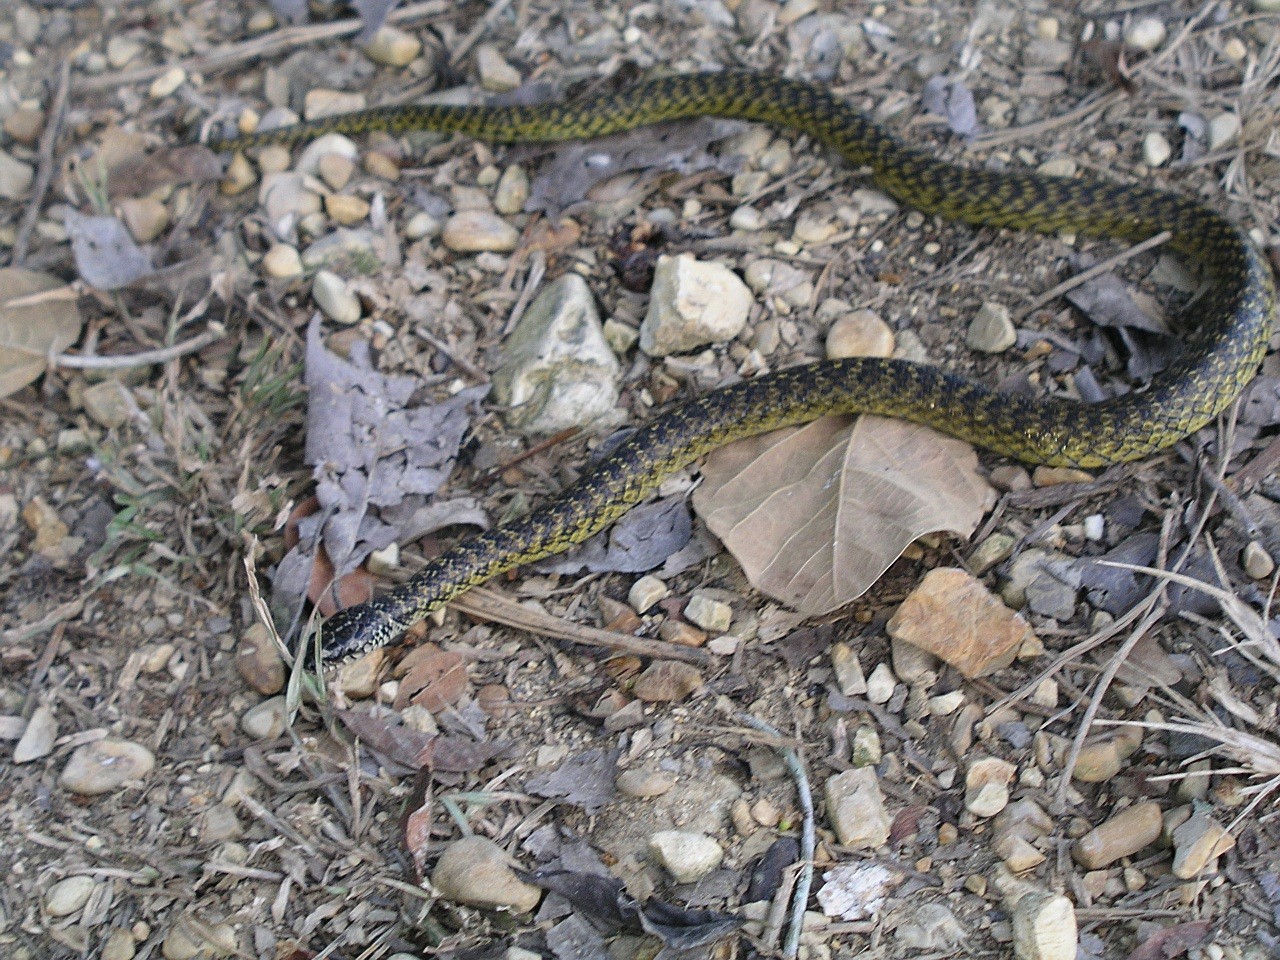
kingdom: Animalia
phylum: Chordata
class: Squamata
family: Colubridae
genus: Erythrolamprus
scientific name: Erythrolamprus cobella
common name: Mangrove snak
